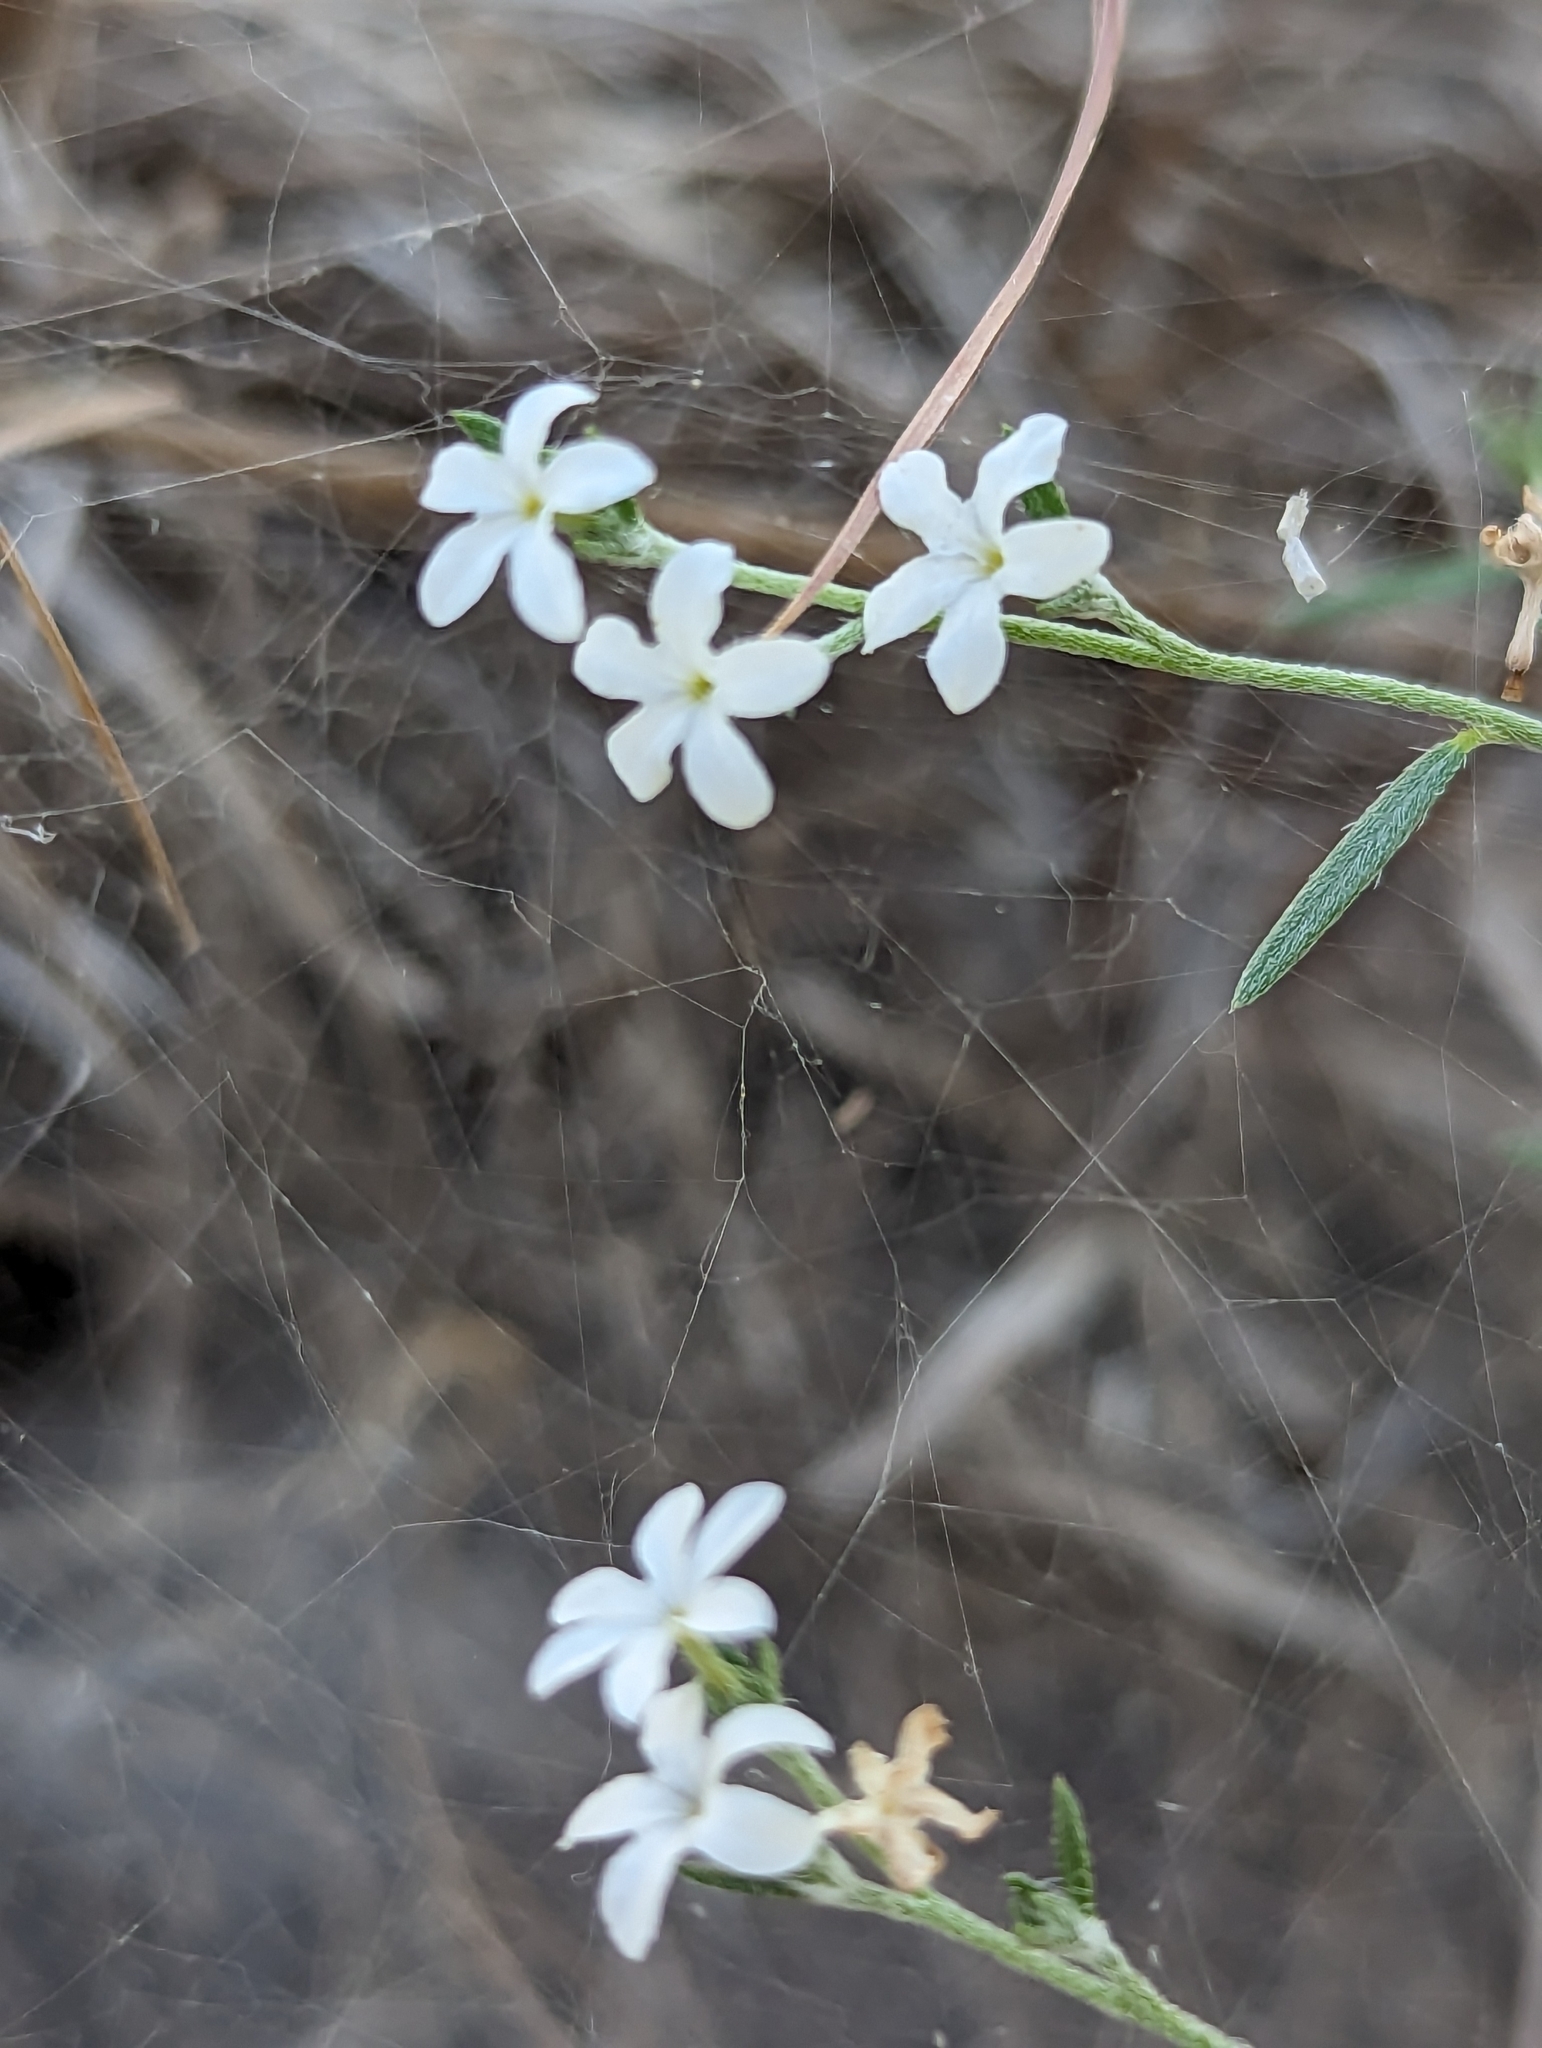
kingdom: Plantae
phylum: Tracheophyta
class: Magnoliopsida
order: Boraginales
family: Heliotropiaceae
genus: Euploca
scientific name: Euploca tenella
